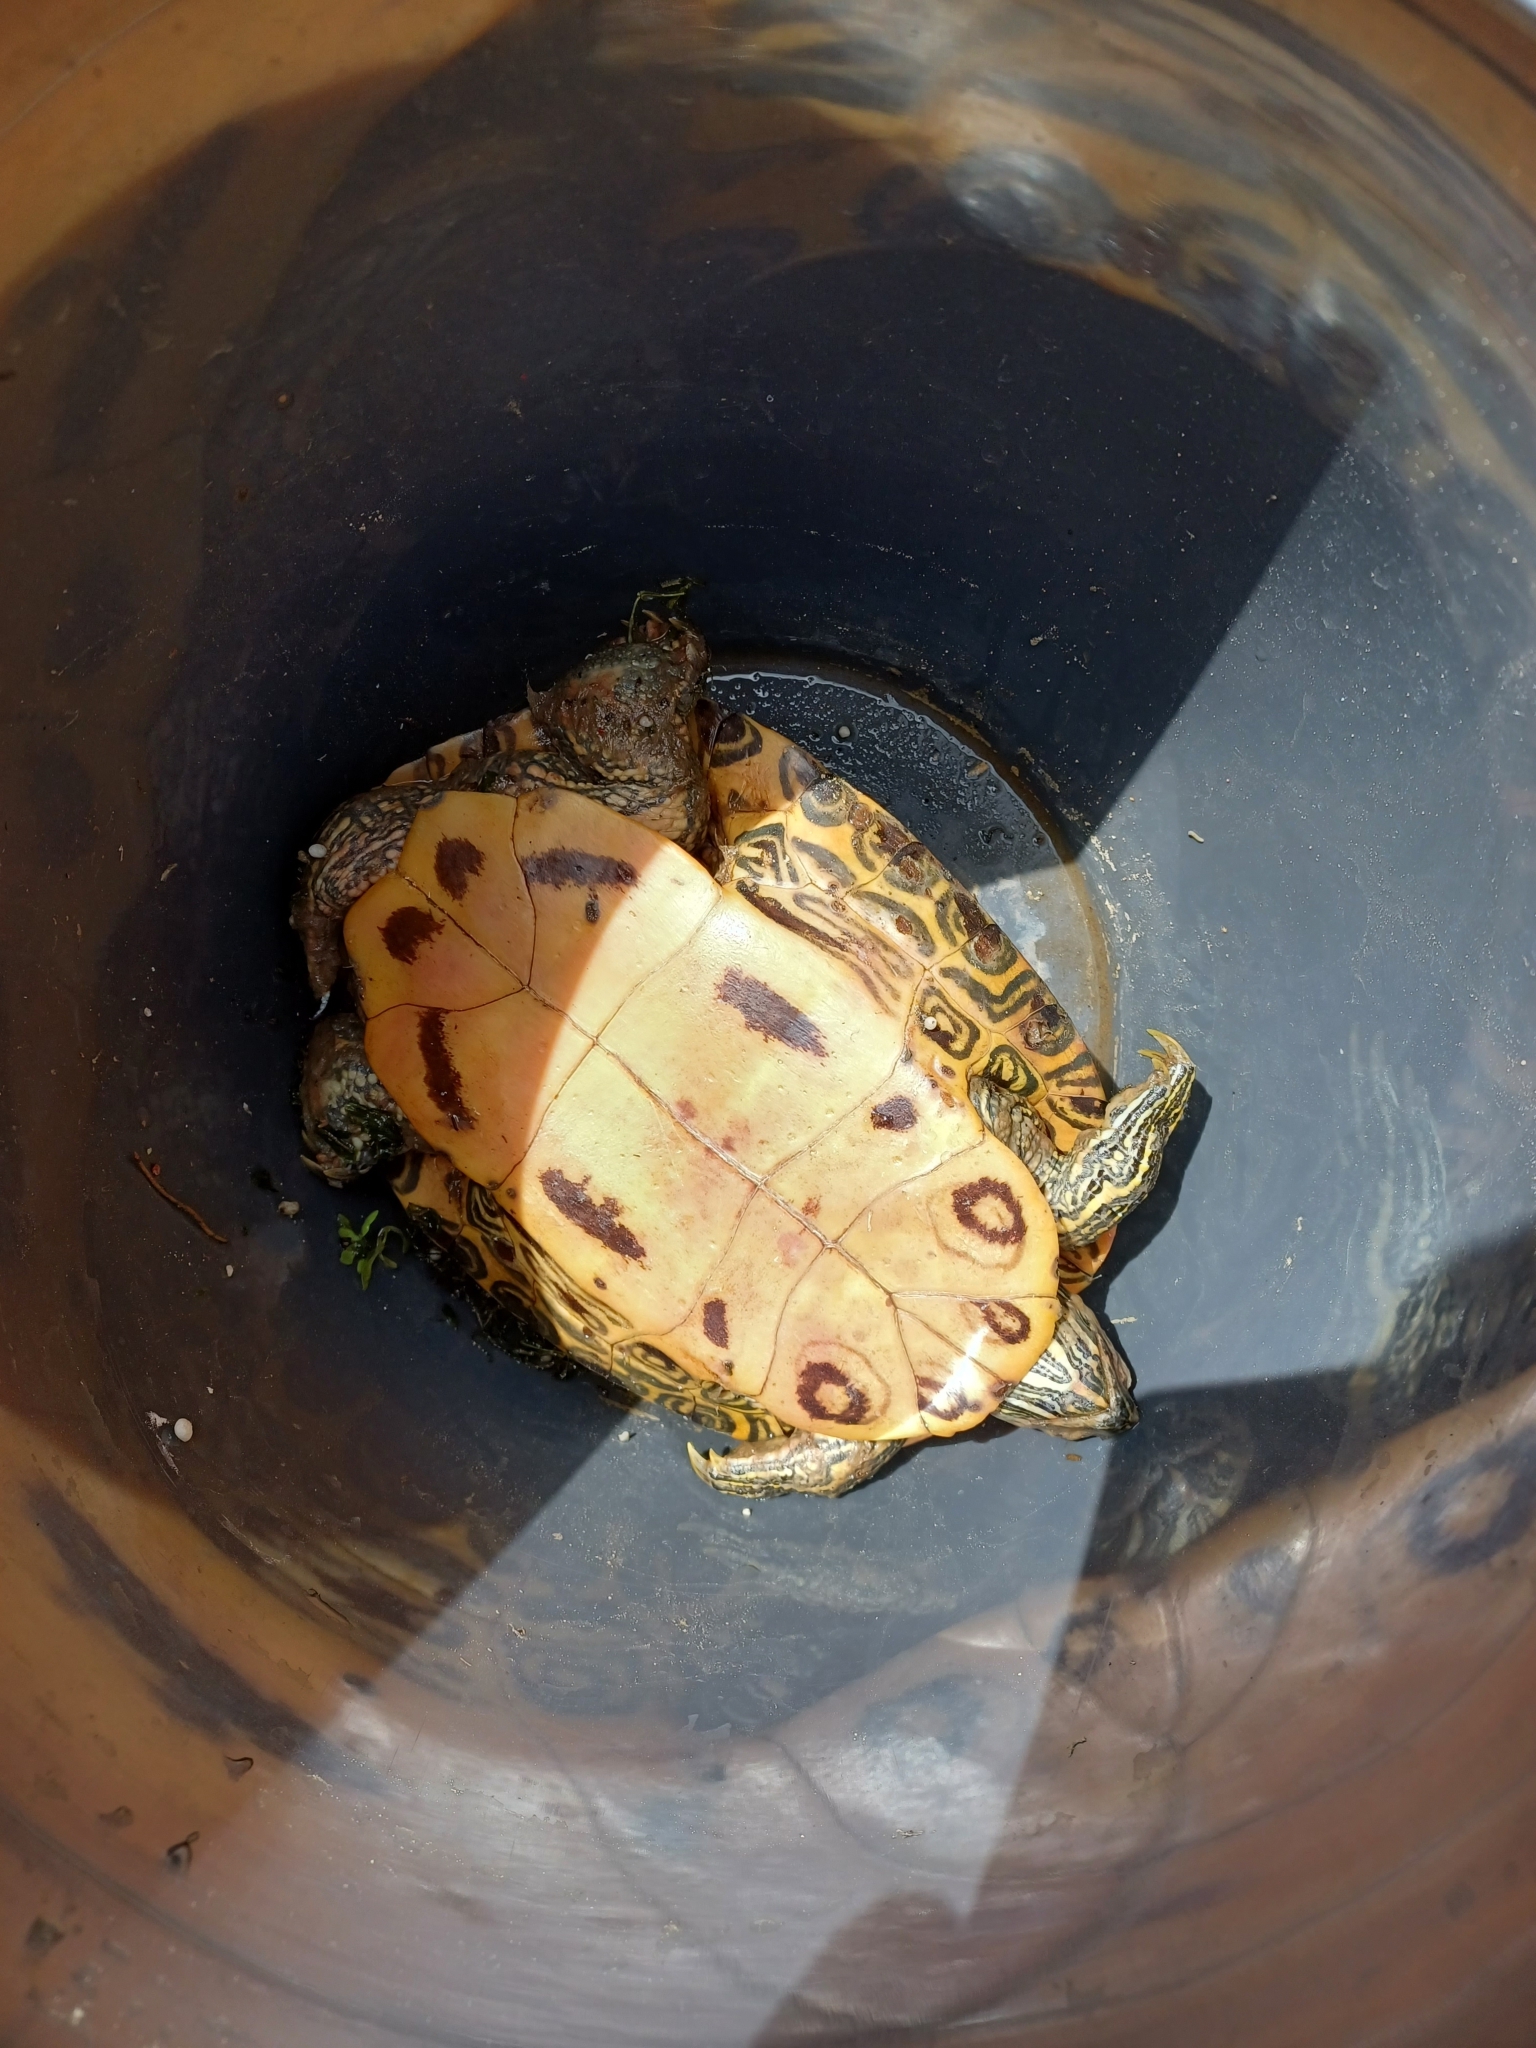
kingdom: Animalia
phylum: Chordata
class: Testudines
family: Emydidae
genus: Trachemys
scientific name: Trachemys scripta
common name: Slider
